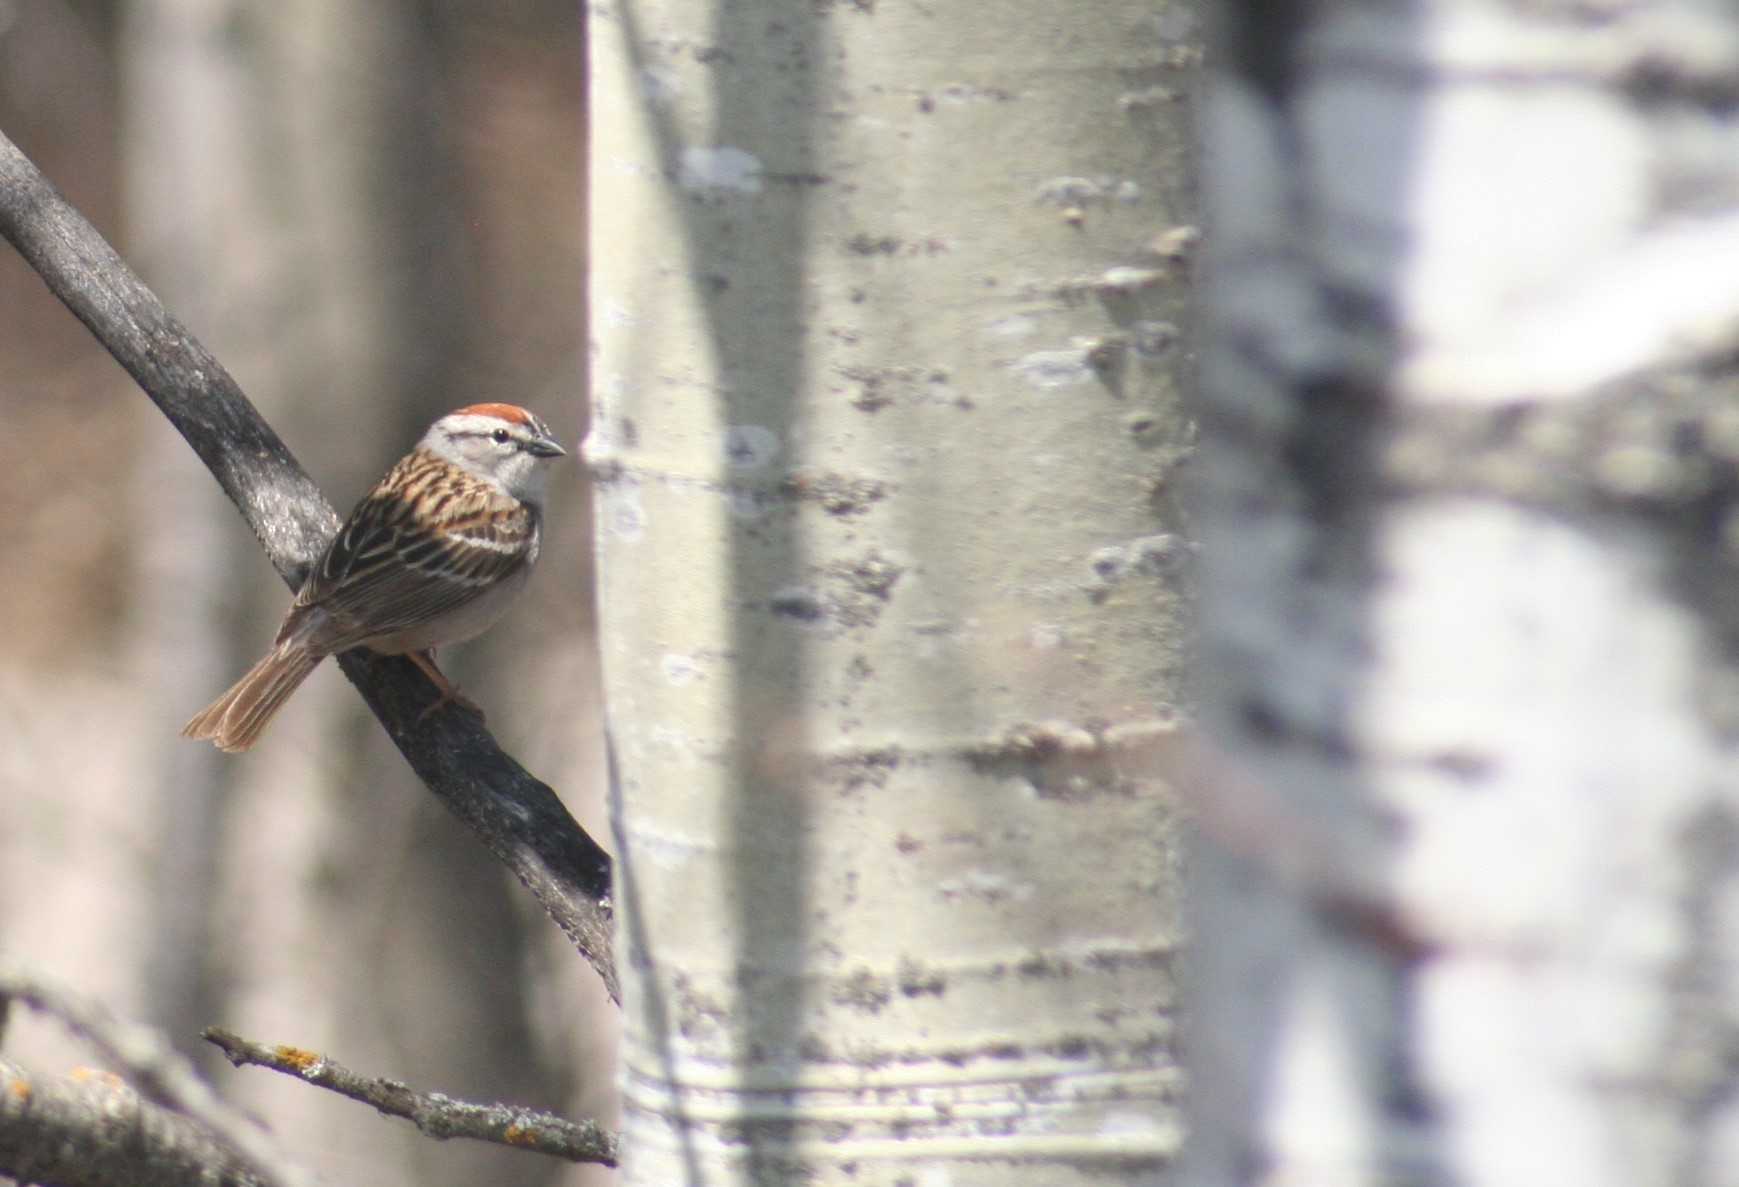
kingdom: Animalia
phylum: Chordata
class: Aves
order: Passeriformes
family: Passerellidae
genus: Spizella
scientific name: Spizella passerina
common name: Chipping sparrow
